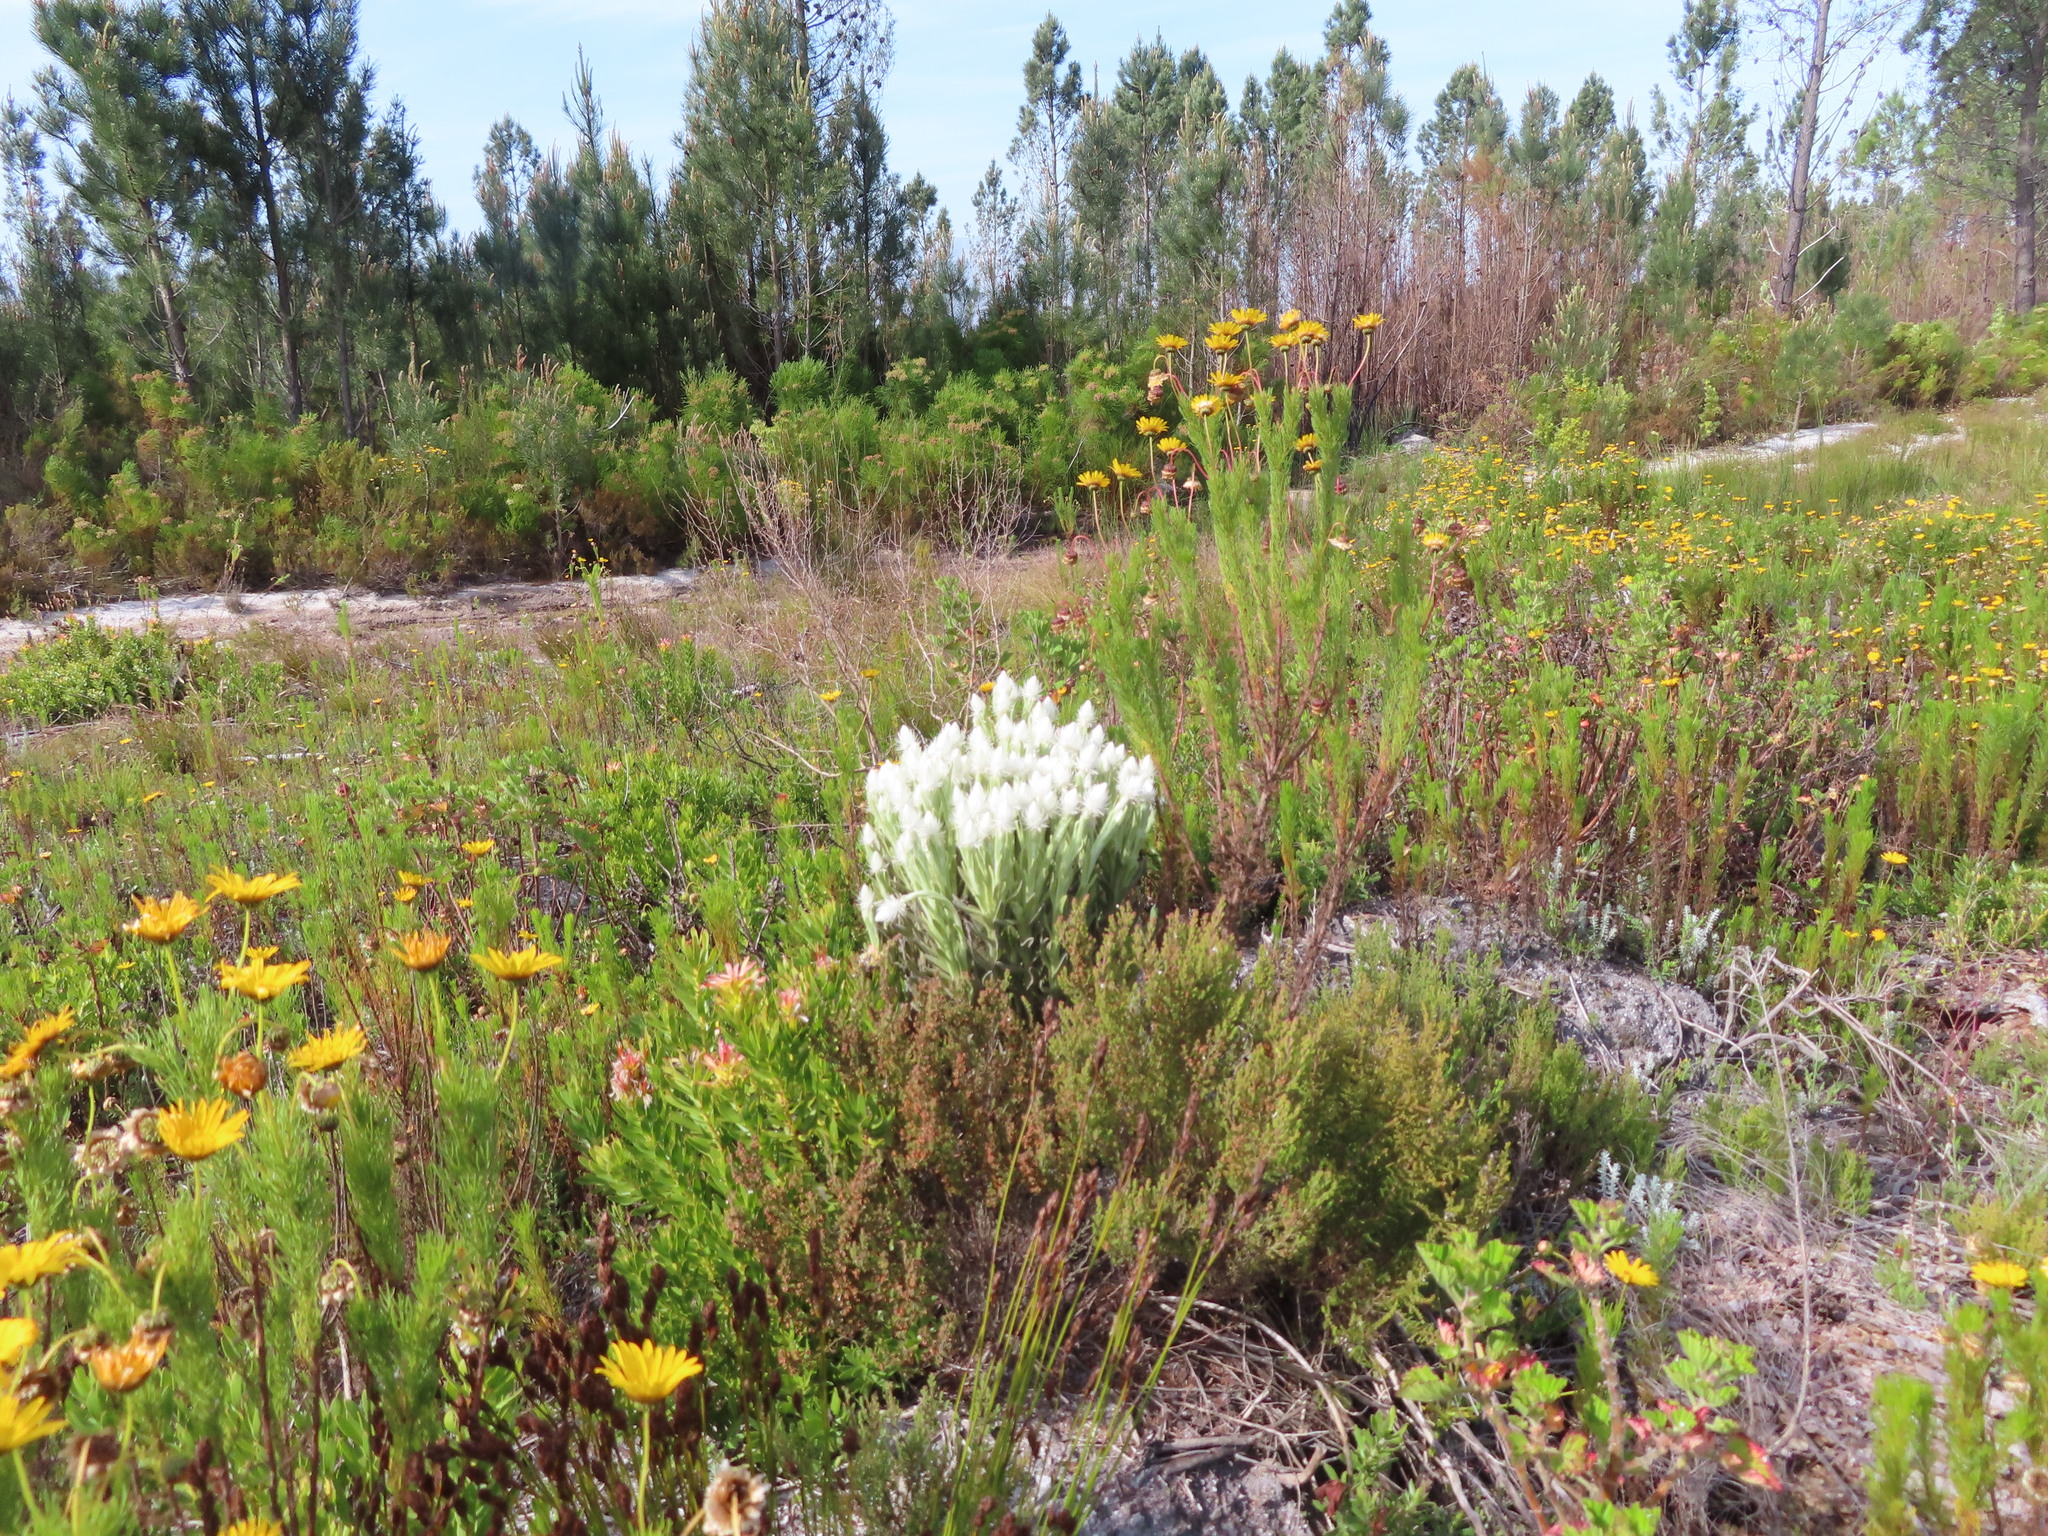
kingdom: Plantae
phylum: Tracheophyta
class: Magnoliopsida
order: Asterales
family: Asteraceae
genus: Syncarpha
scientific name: Syncarpha vestita
